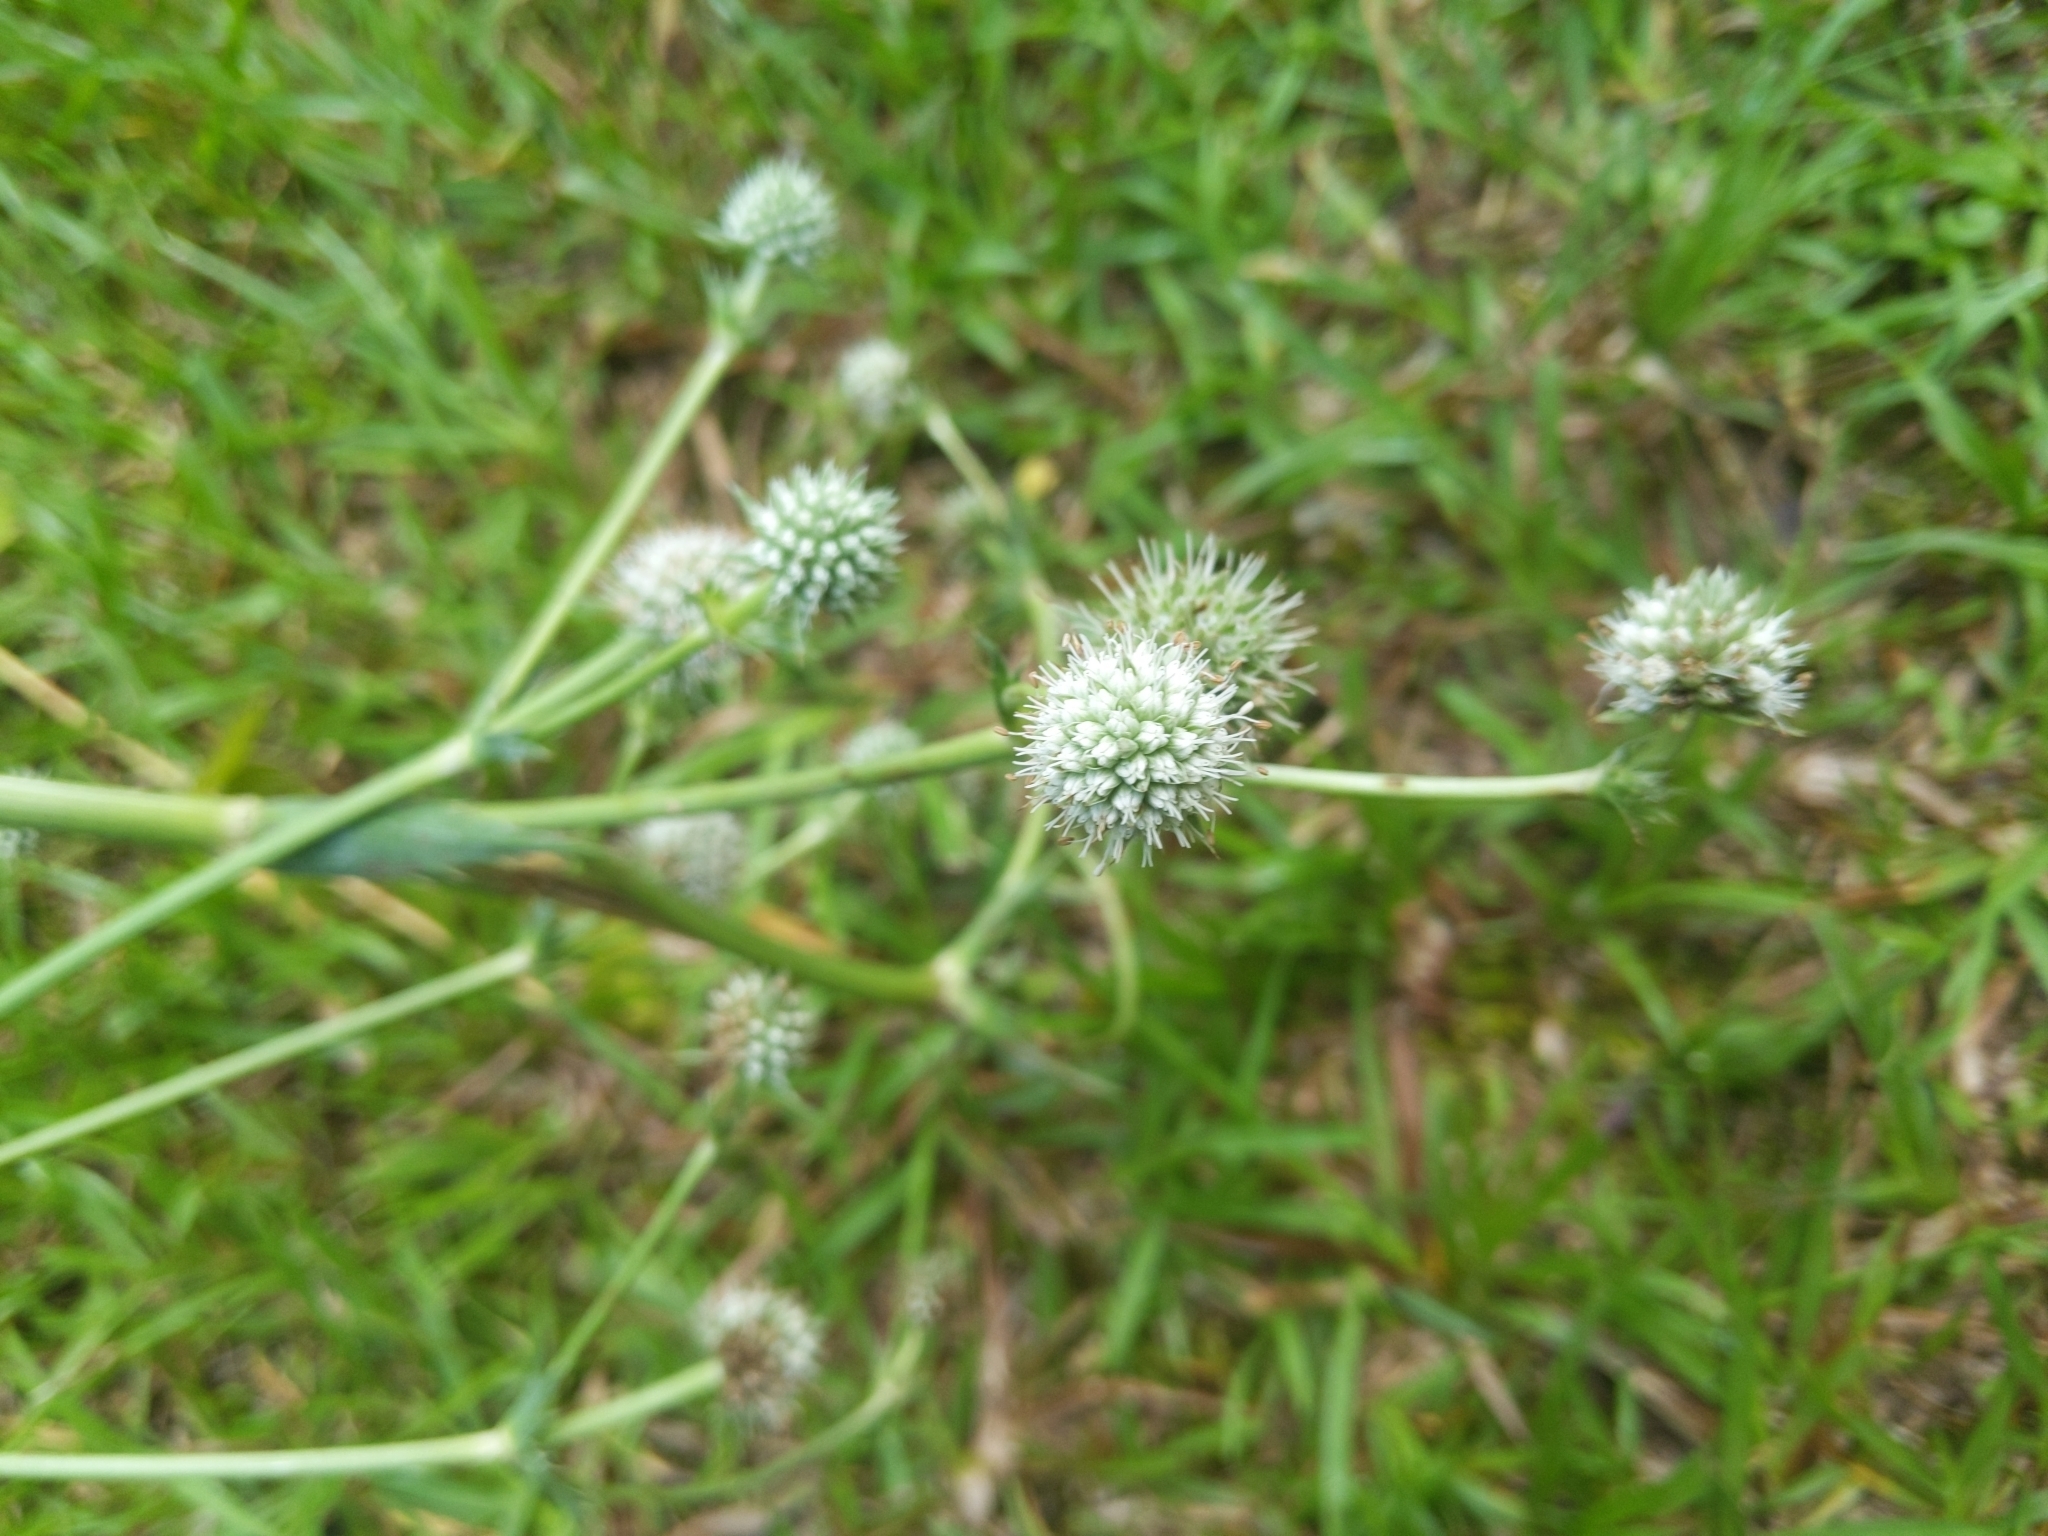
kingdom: Plantae
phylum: Tracheophyta
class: Magnoliopsida
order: Apiales
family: Apiaceae
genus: Eryngium
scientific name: Eryngium yuccifolium
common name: Button eryngo
